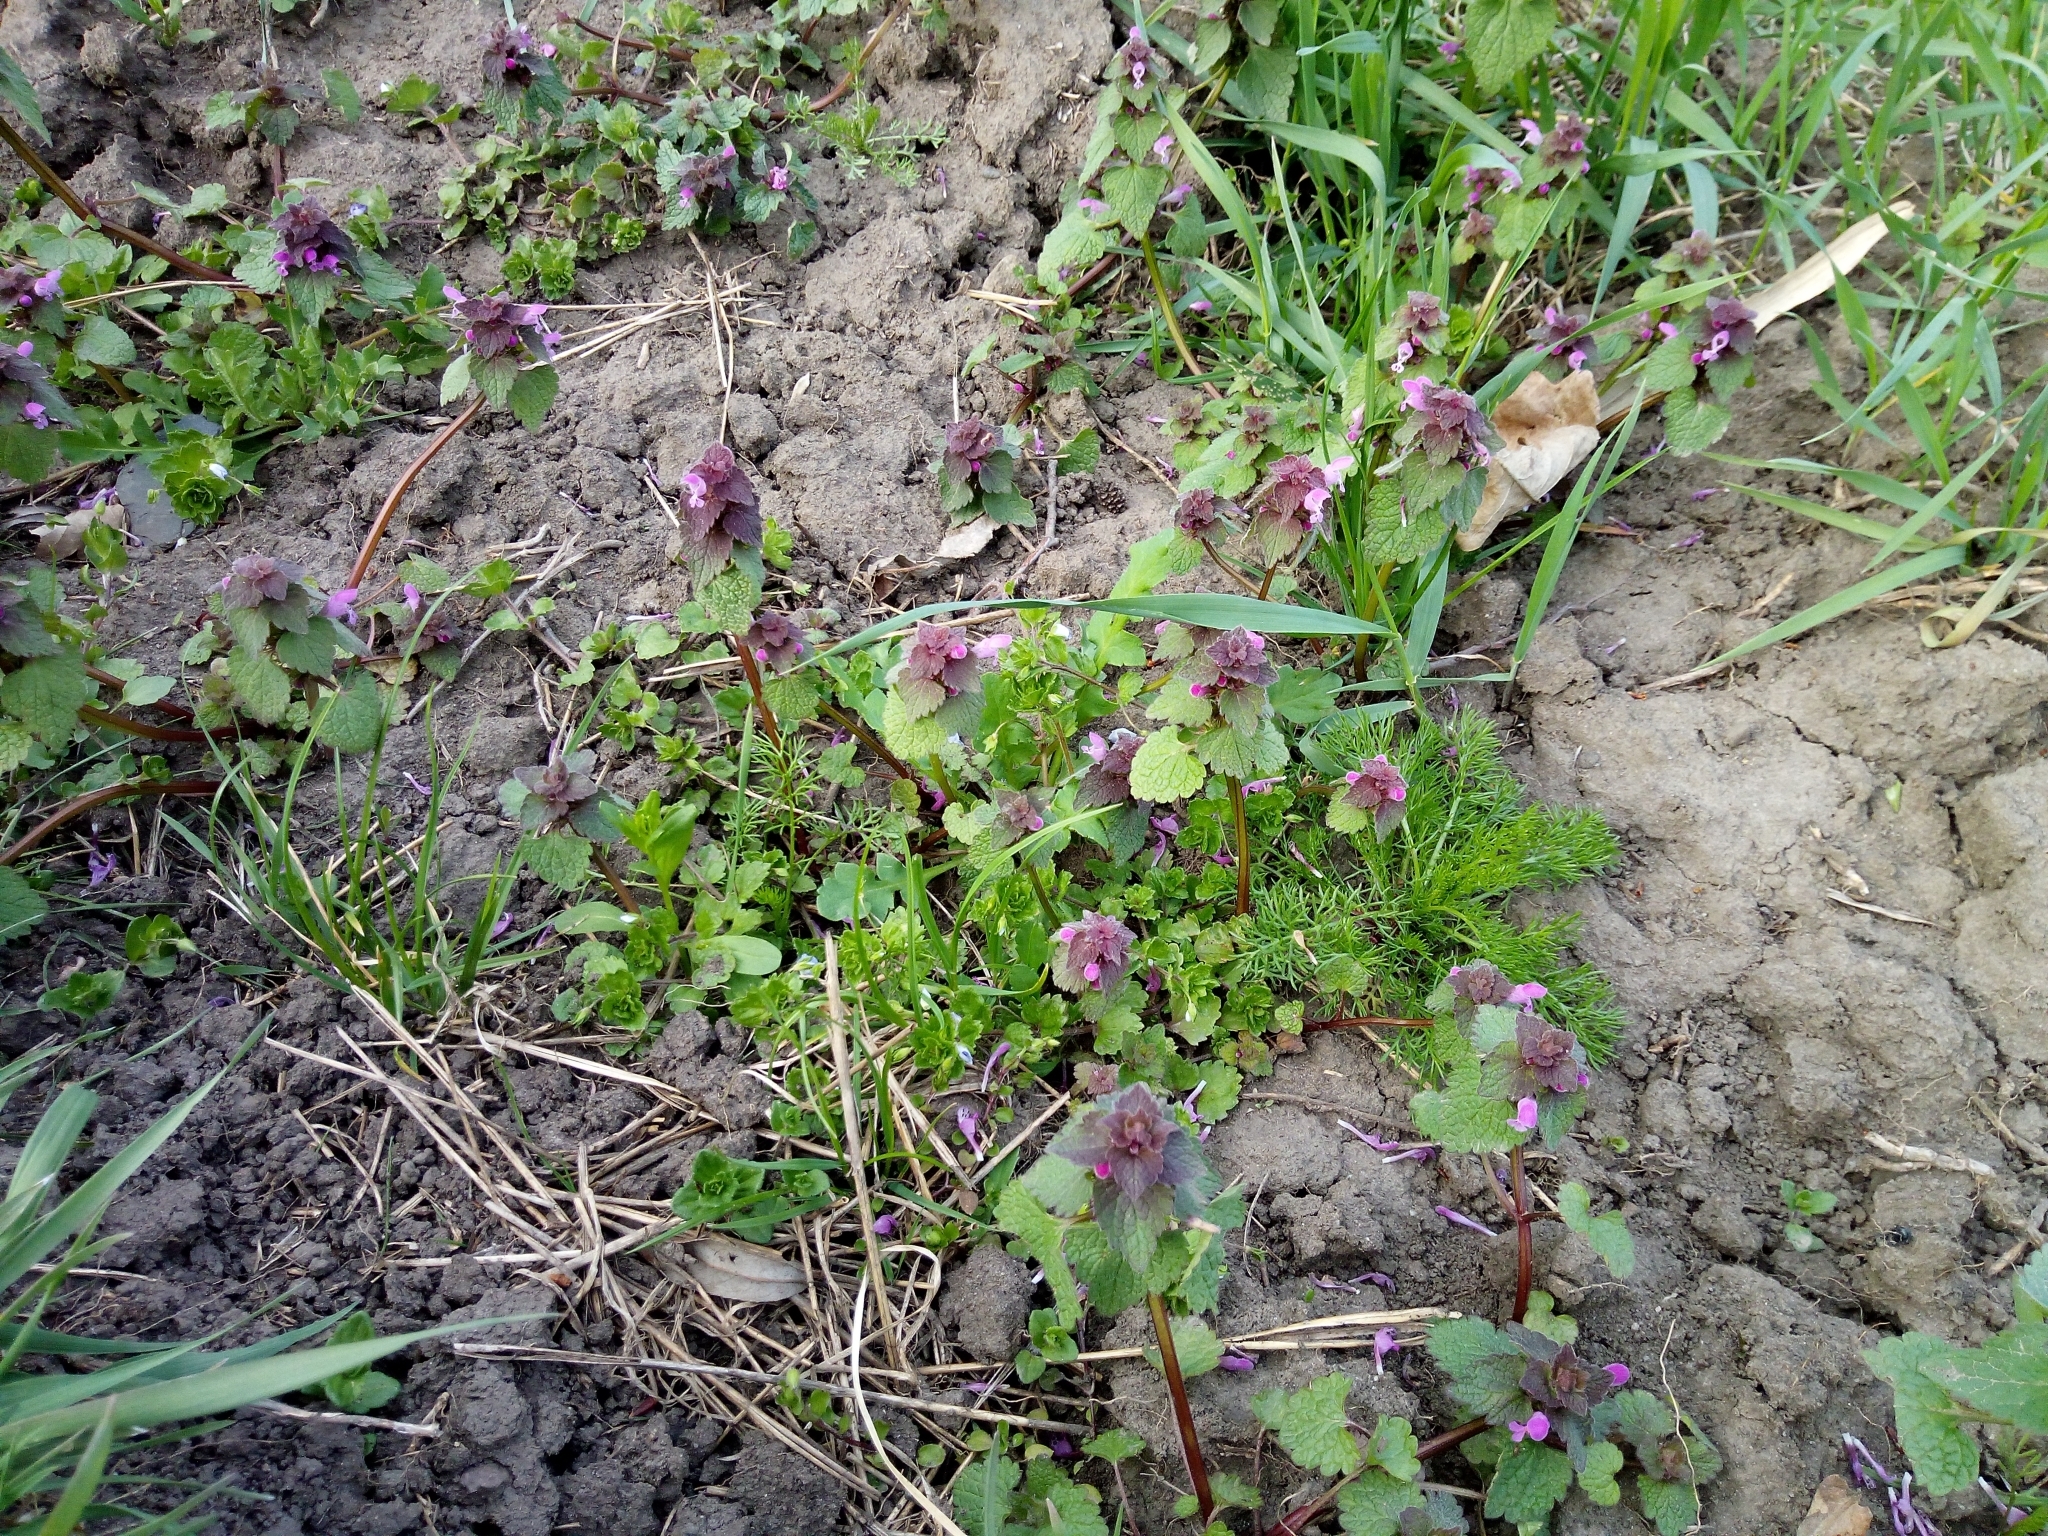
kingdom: Plantae
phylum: Tracheophyta
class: Magnoliopsida
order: Lamiales
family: Lamiaceae
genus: Lamium
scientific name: Lamium purpureum
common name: Red dead-nettle
